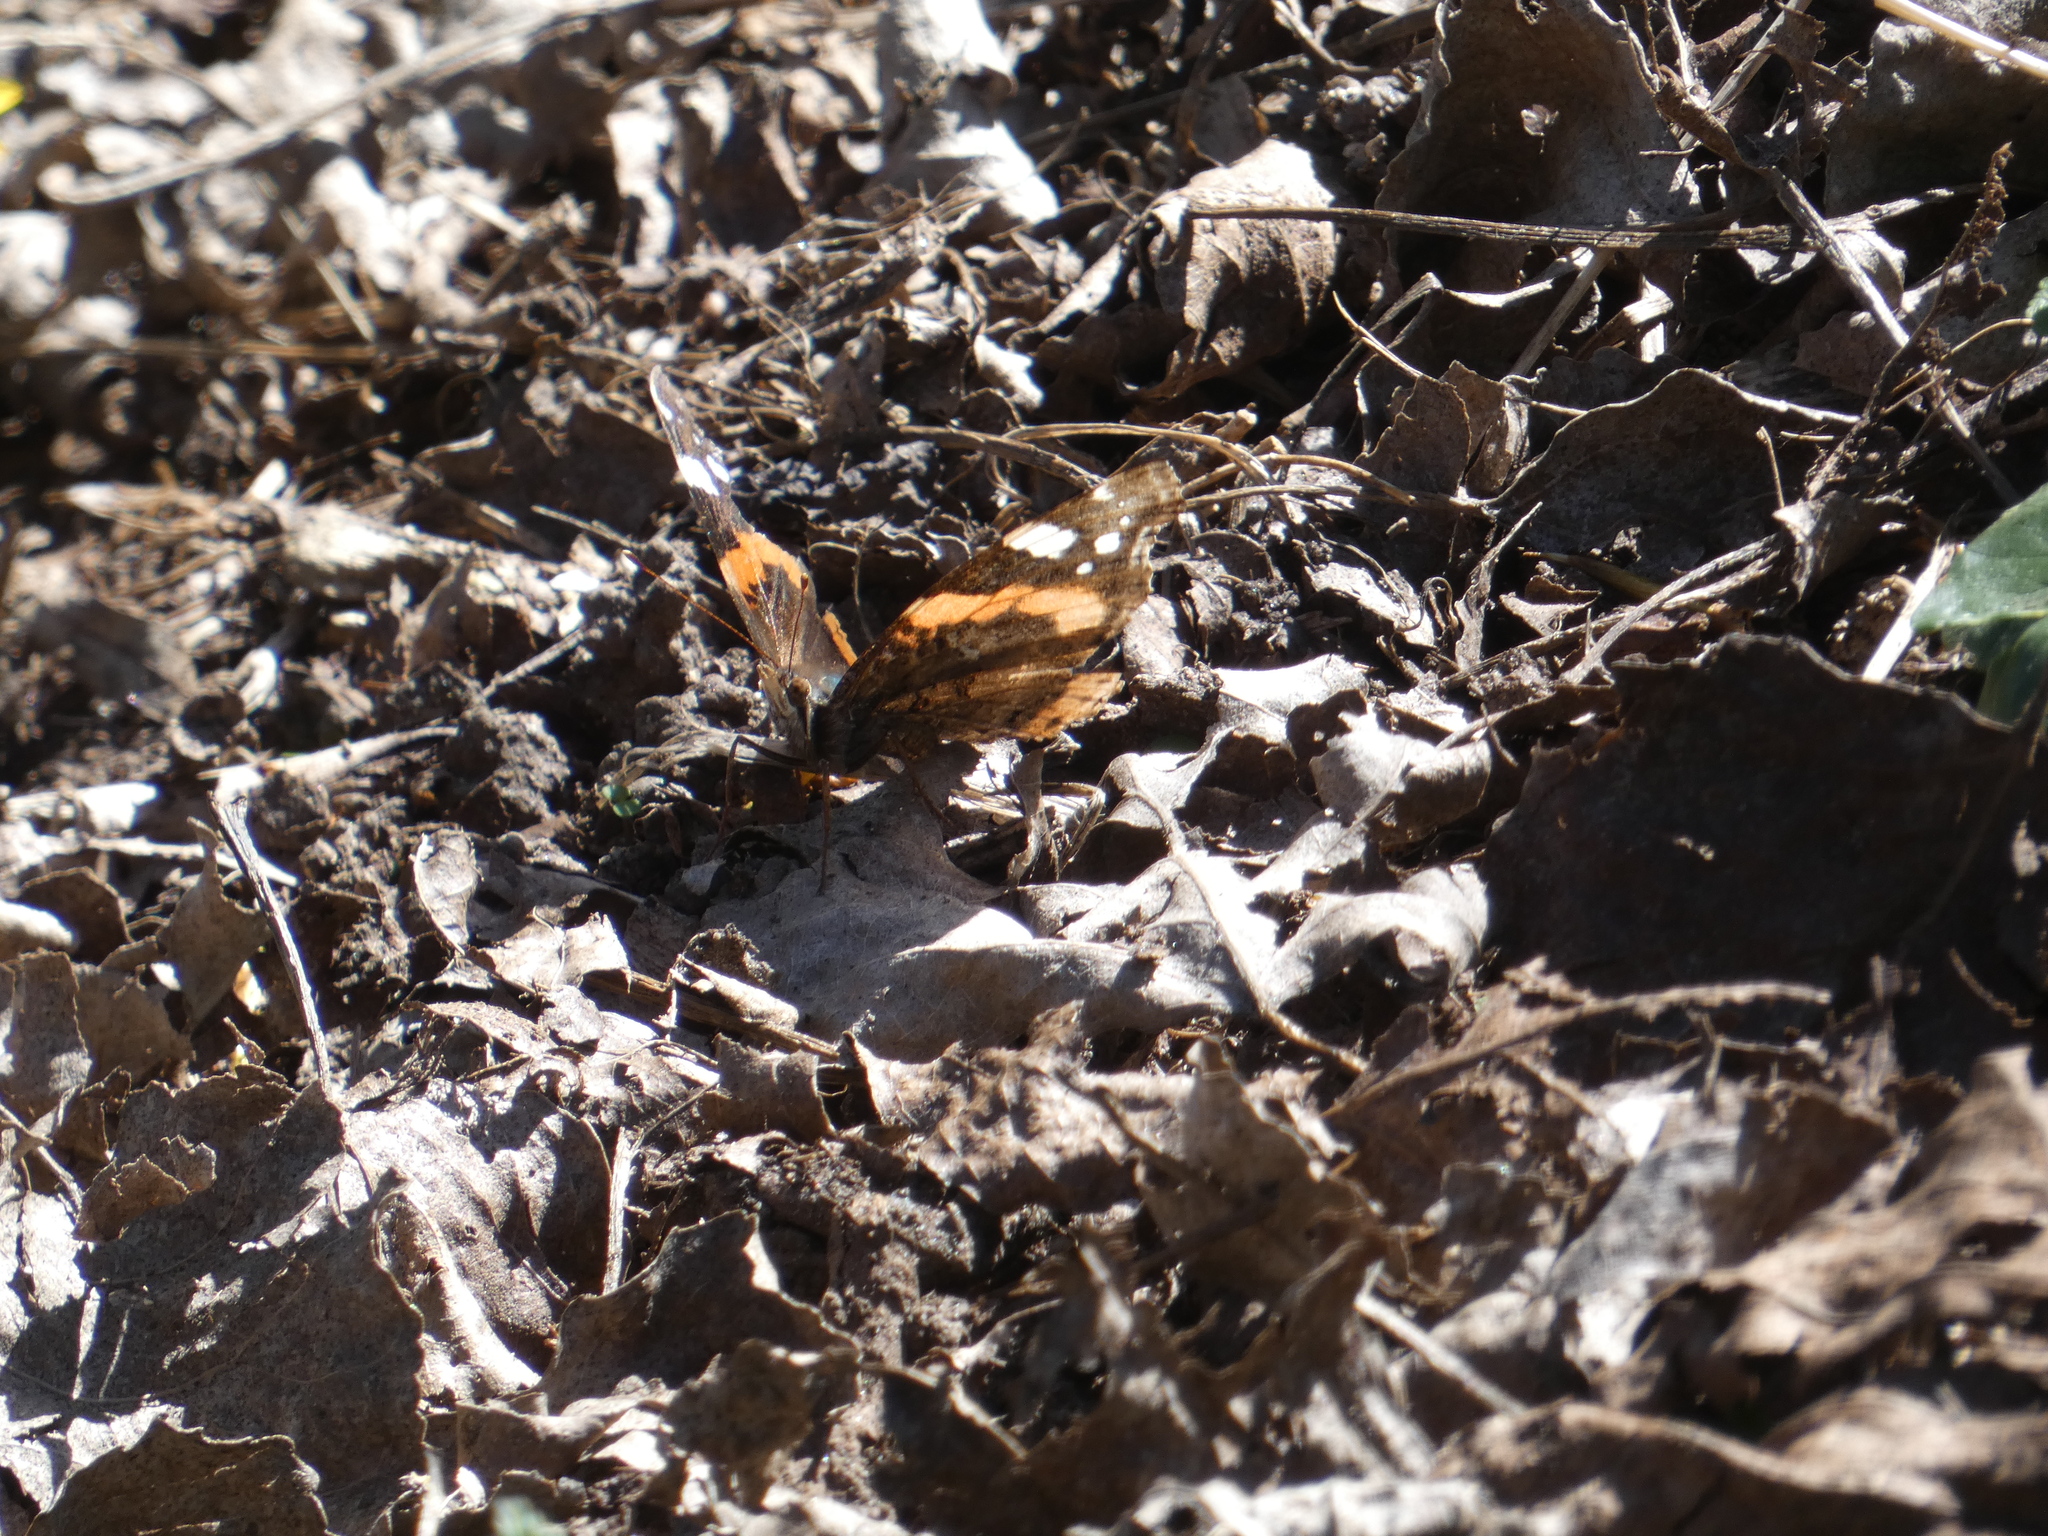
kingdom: Animalia
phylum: Arthropoda
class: Insecta
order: Lepidoptera
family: Nymphalidae
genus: Vanessa
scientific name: Vanessa atalanta
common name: Red admiral
